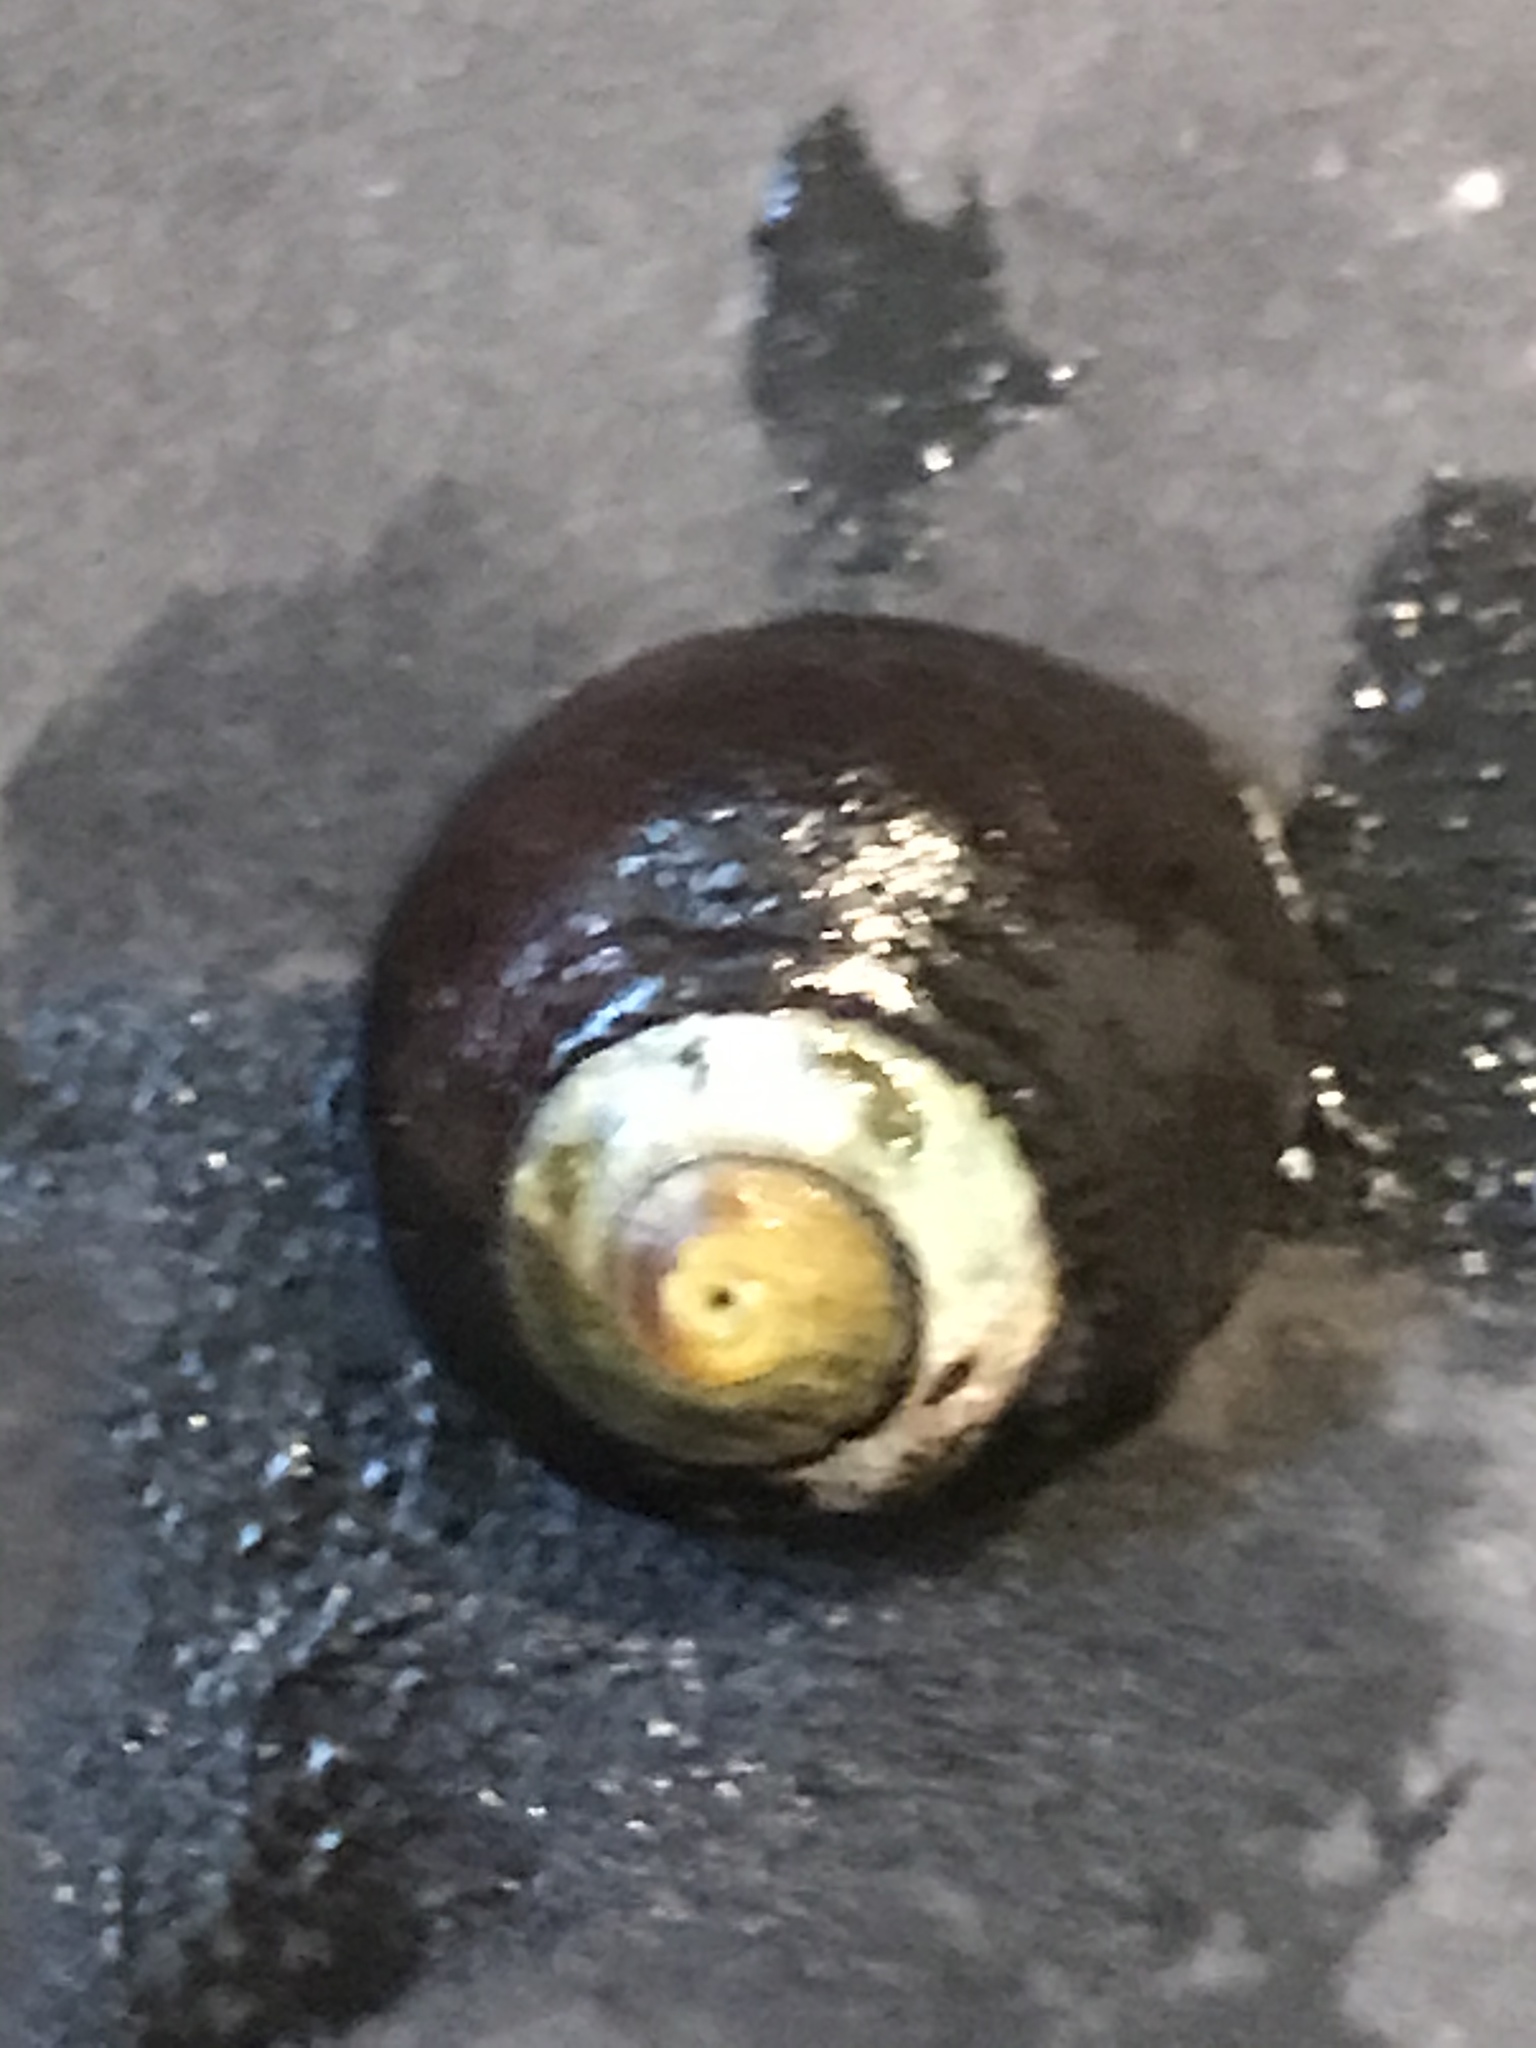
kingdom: Animalia
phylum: Mollusca
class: Gastropoda
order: Trochida
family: Tegulidae
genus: Tegula
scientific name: Tegula funebralis
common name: Black tegula
